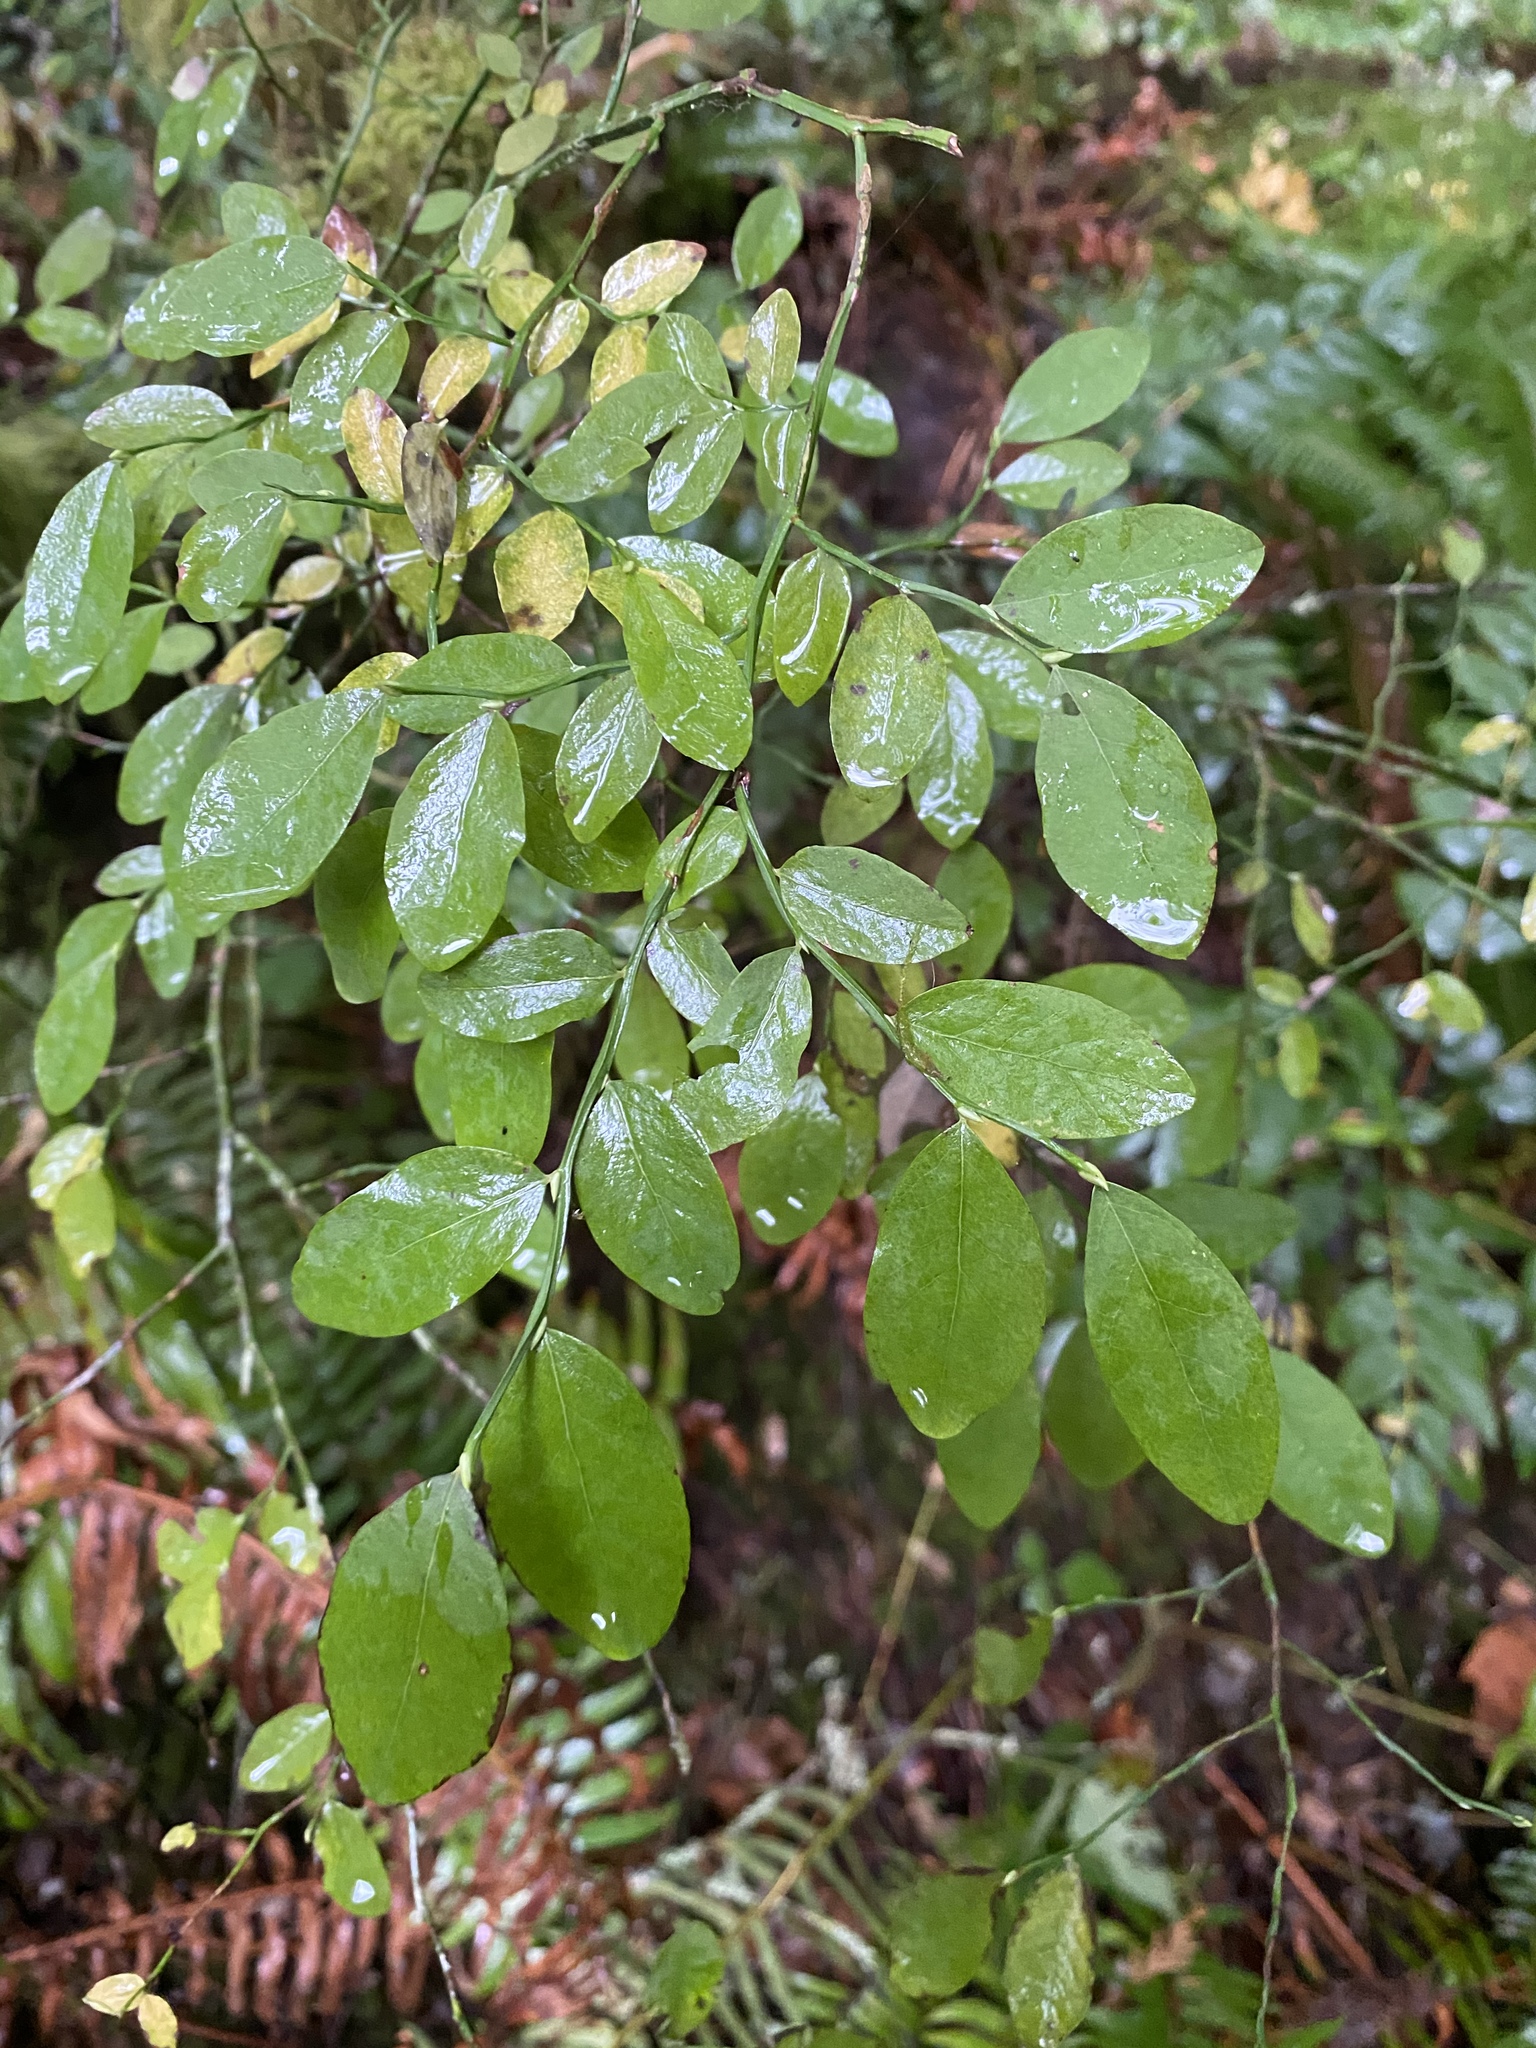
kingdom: Plantae
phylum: Tracheophyta
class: Magnoliopsida
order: Ericales
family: Ericaceae
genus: Vaccinium
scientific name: Vaccinium parvifolium
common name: Red-huckleberry
